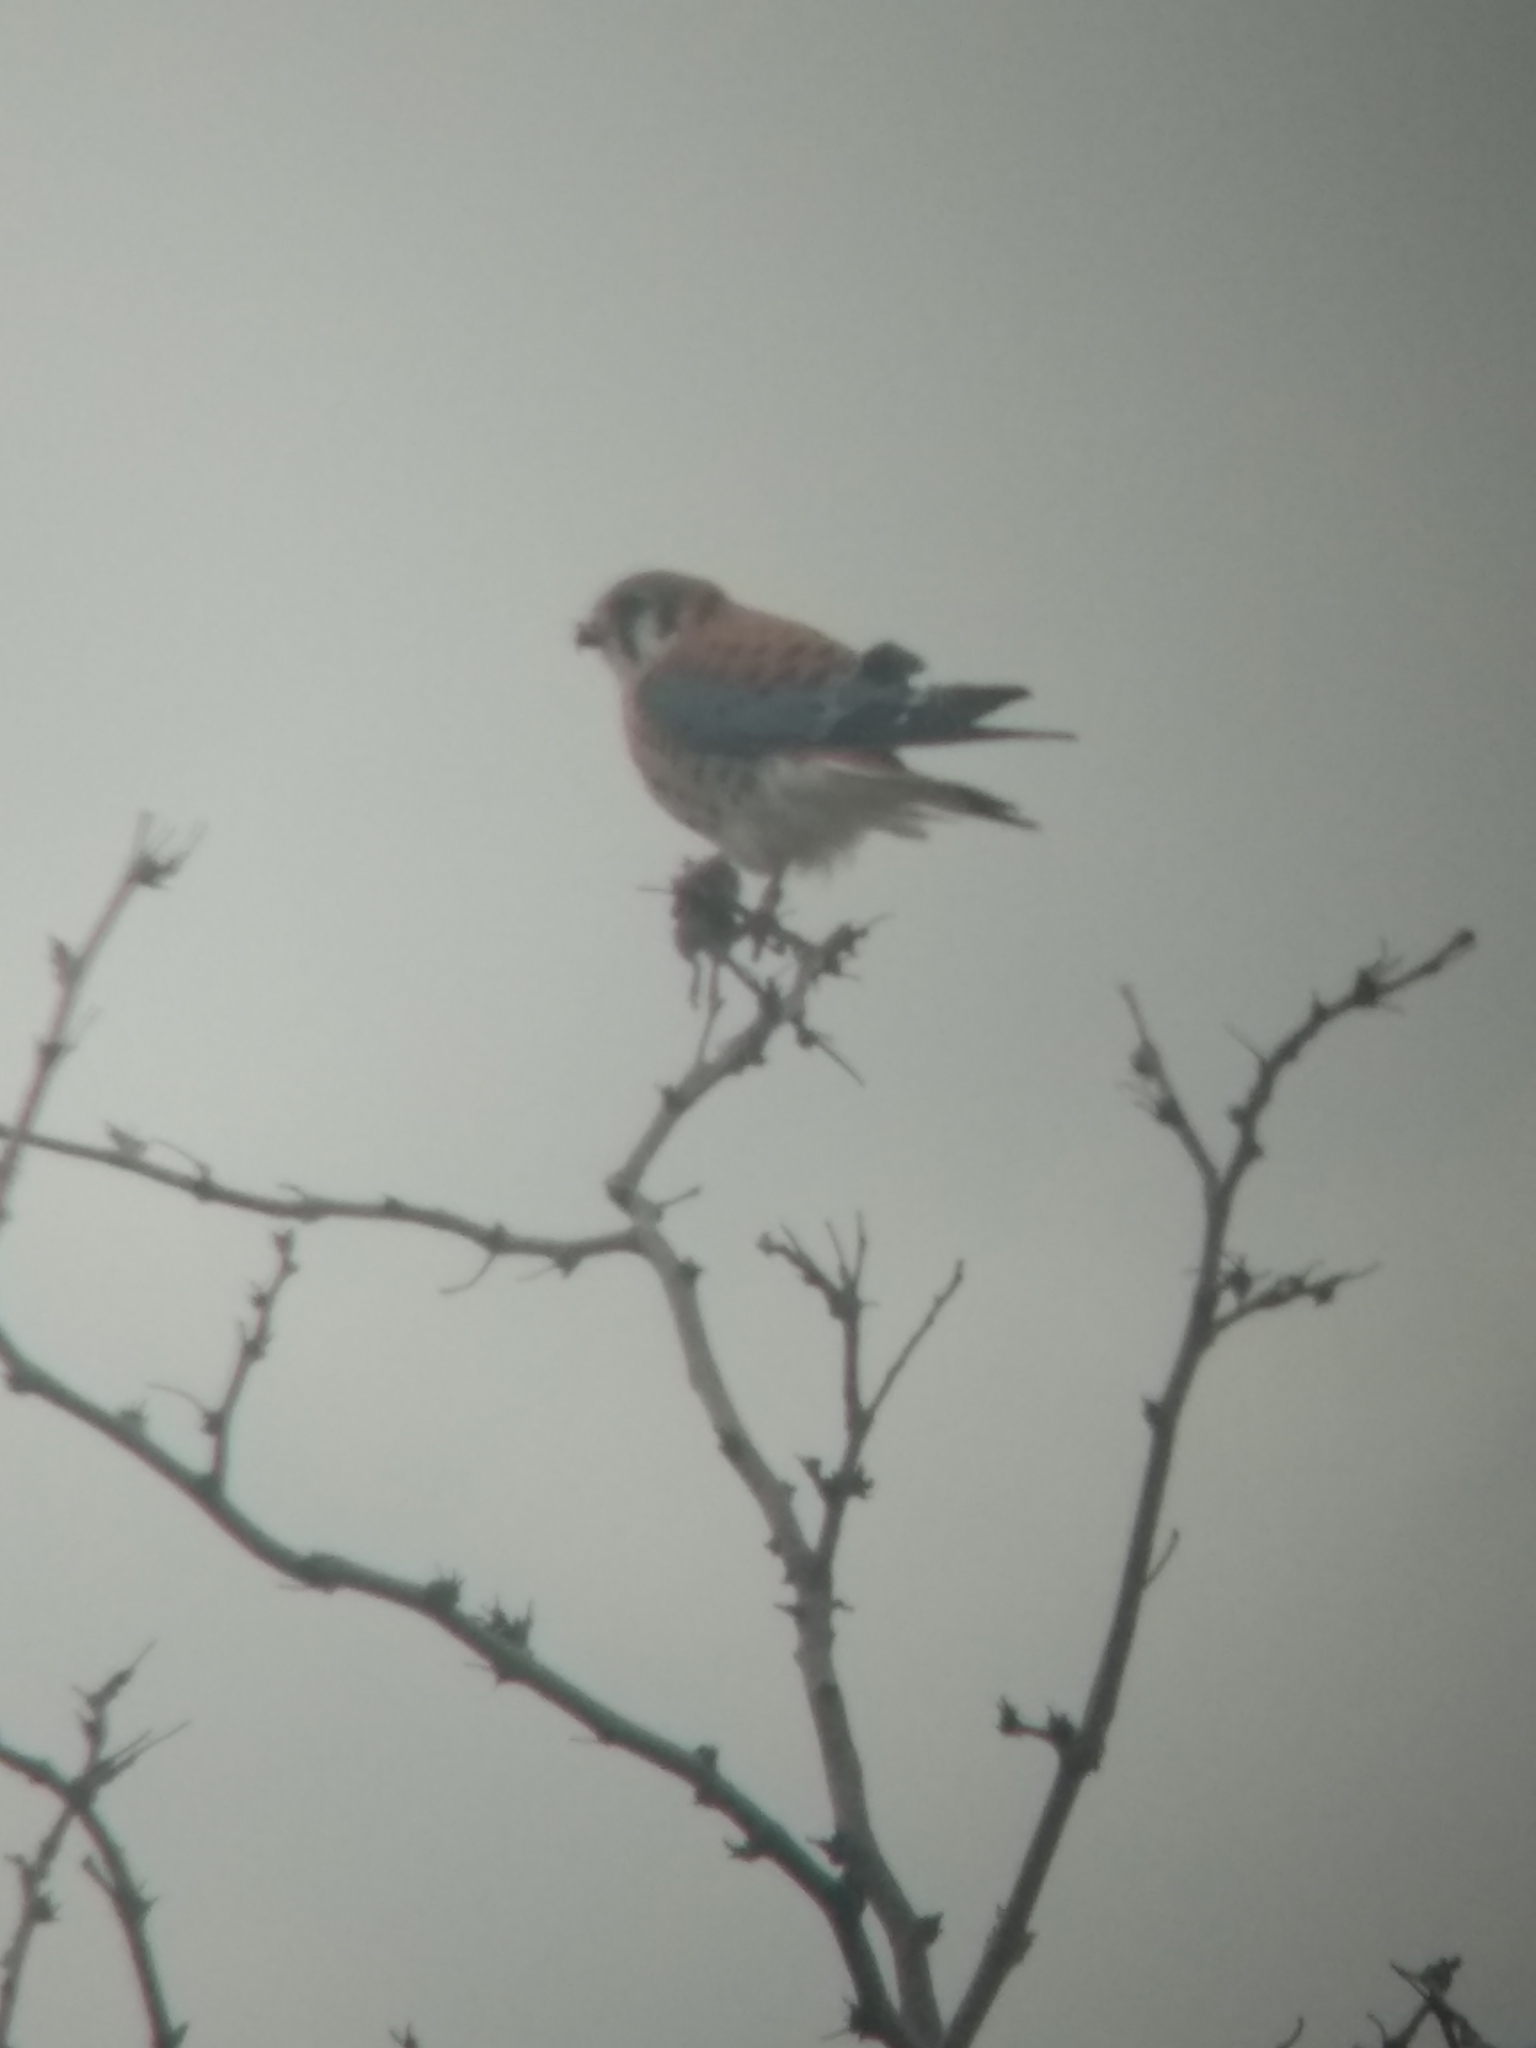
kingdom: Animalia
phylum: Chordata
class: Aves
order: Falconiformes
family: Falconidae
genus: Falco
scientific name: Falco sparverius
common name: American kestrel
